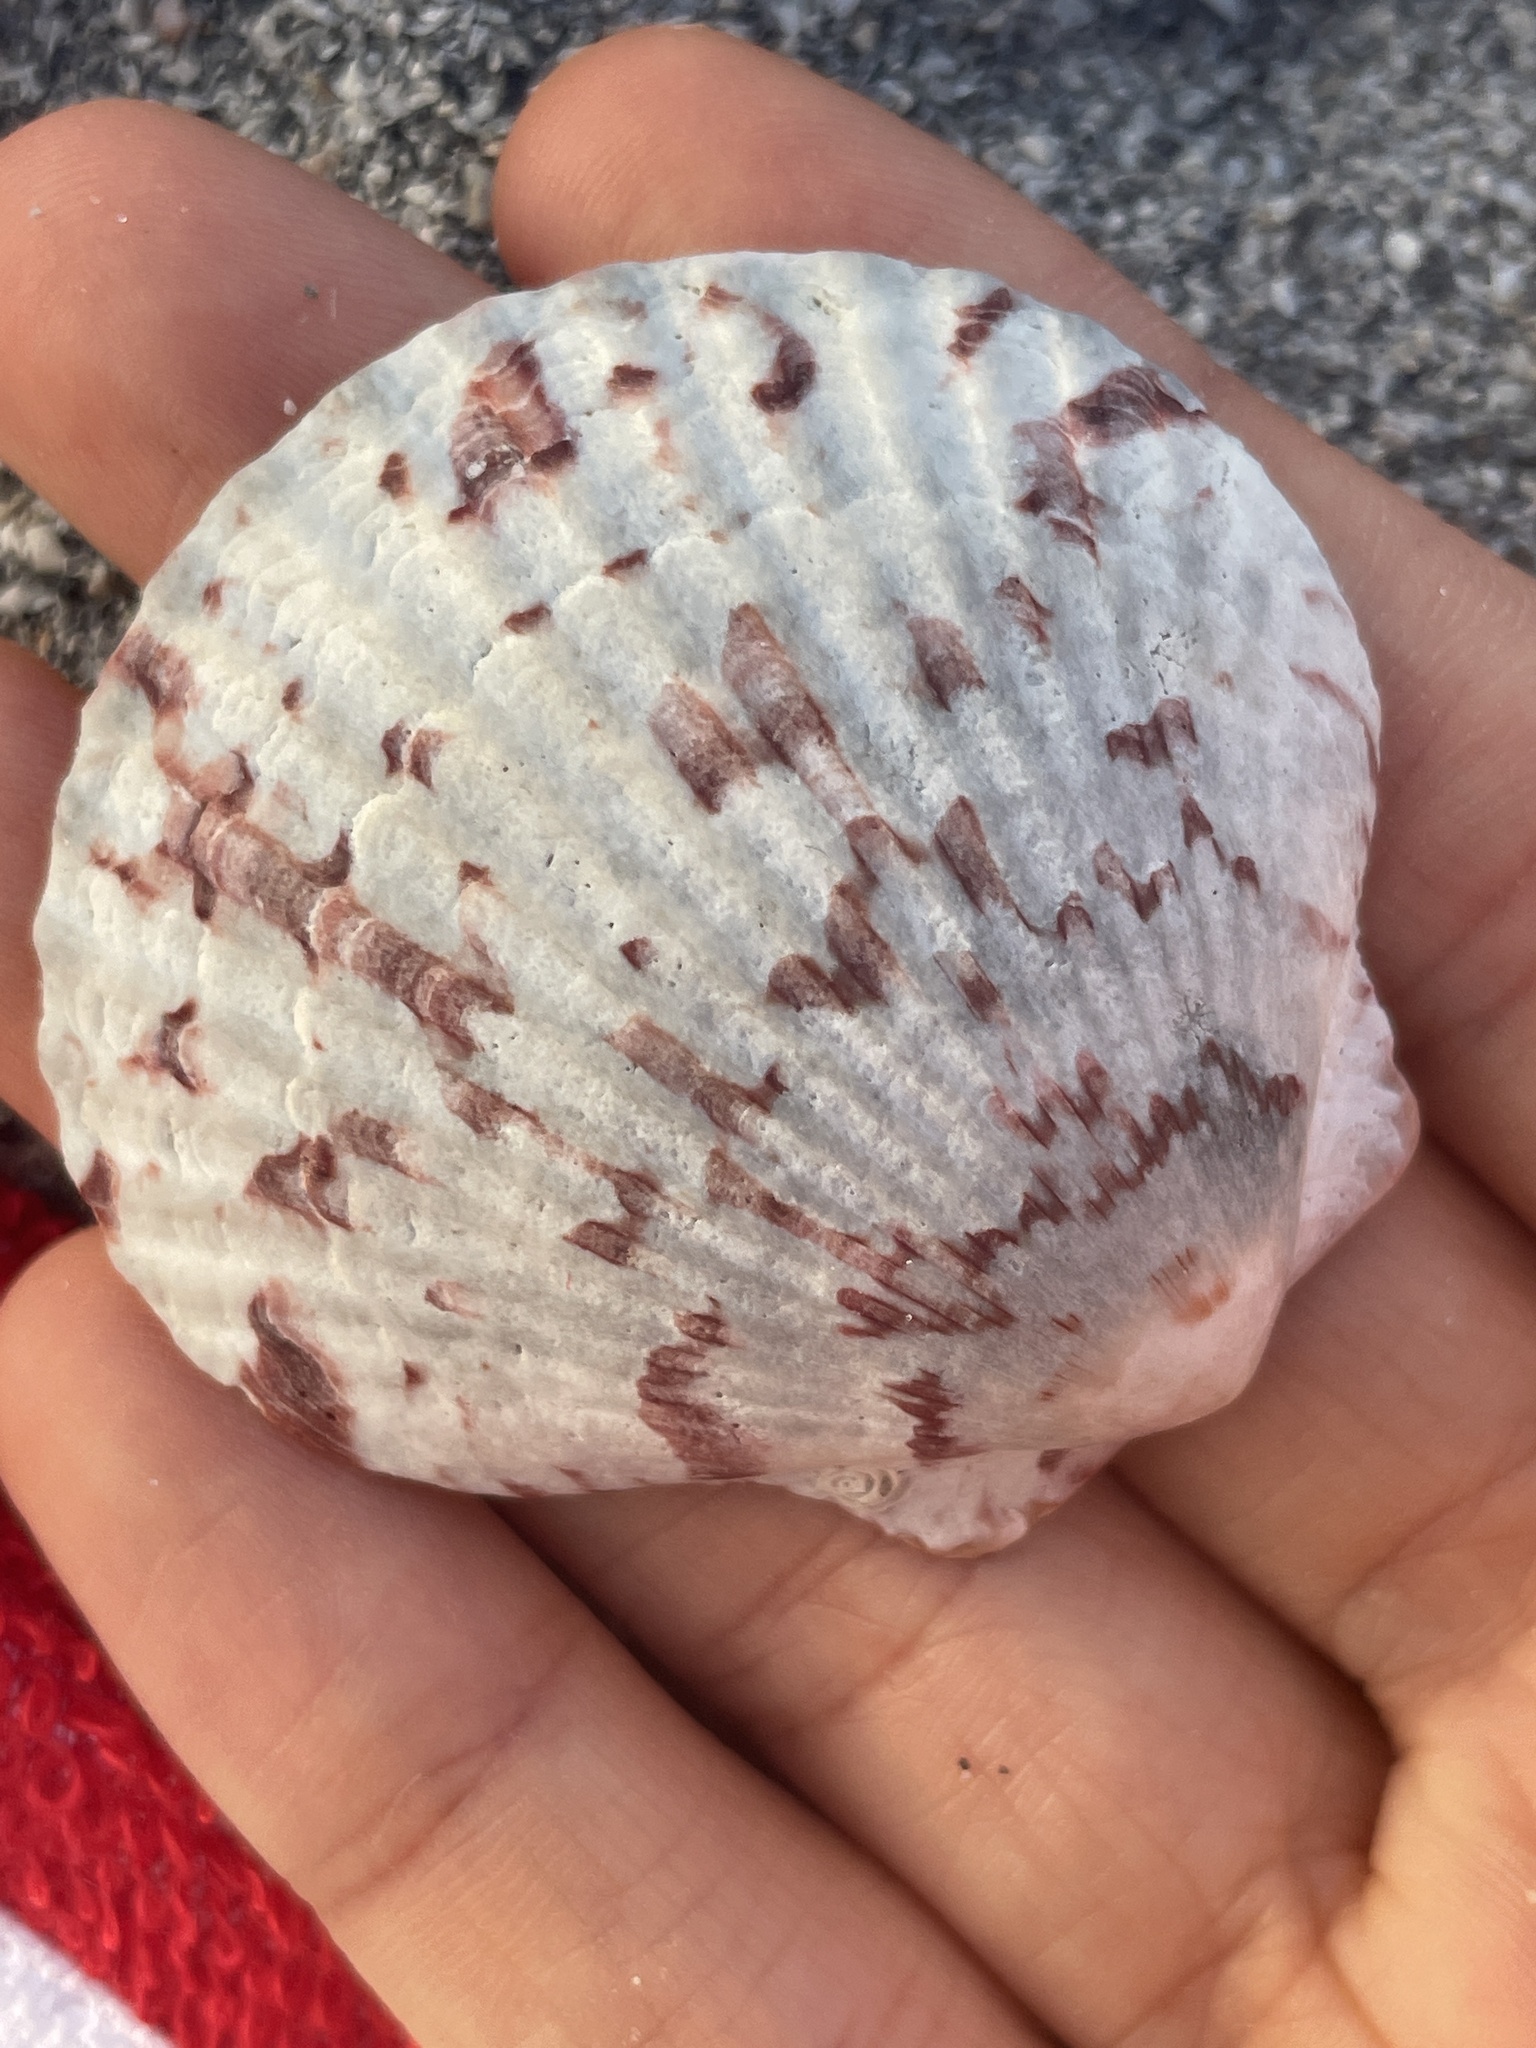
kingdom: Animalia
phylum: Mollusca
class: Bivalvia
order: Pectinida
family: Pectinidae
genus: Argopecten
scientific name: Argopecten gibbus
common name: Atlantic calico scallop
